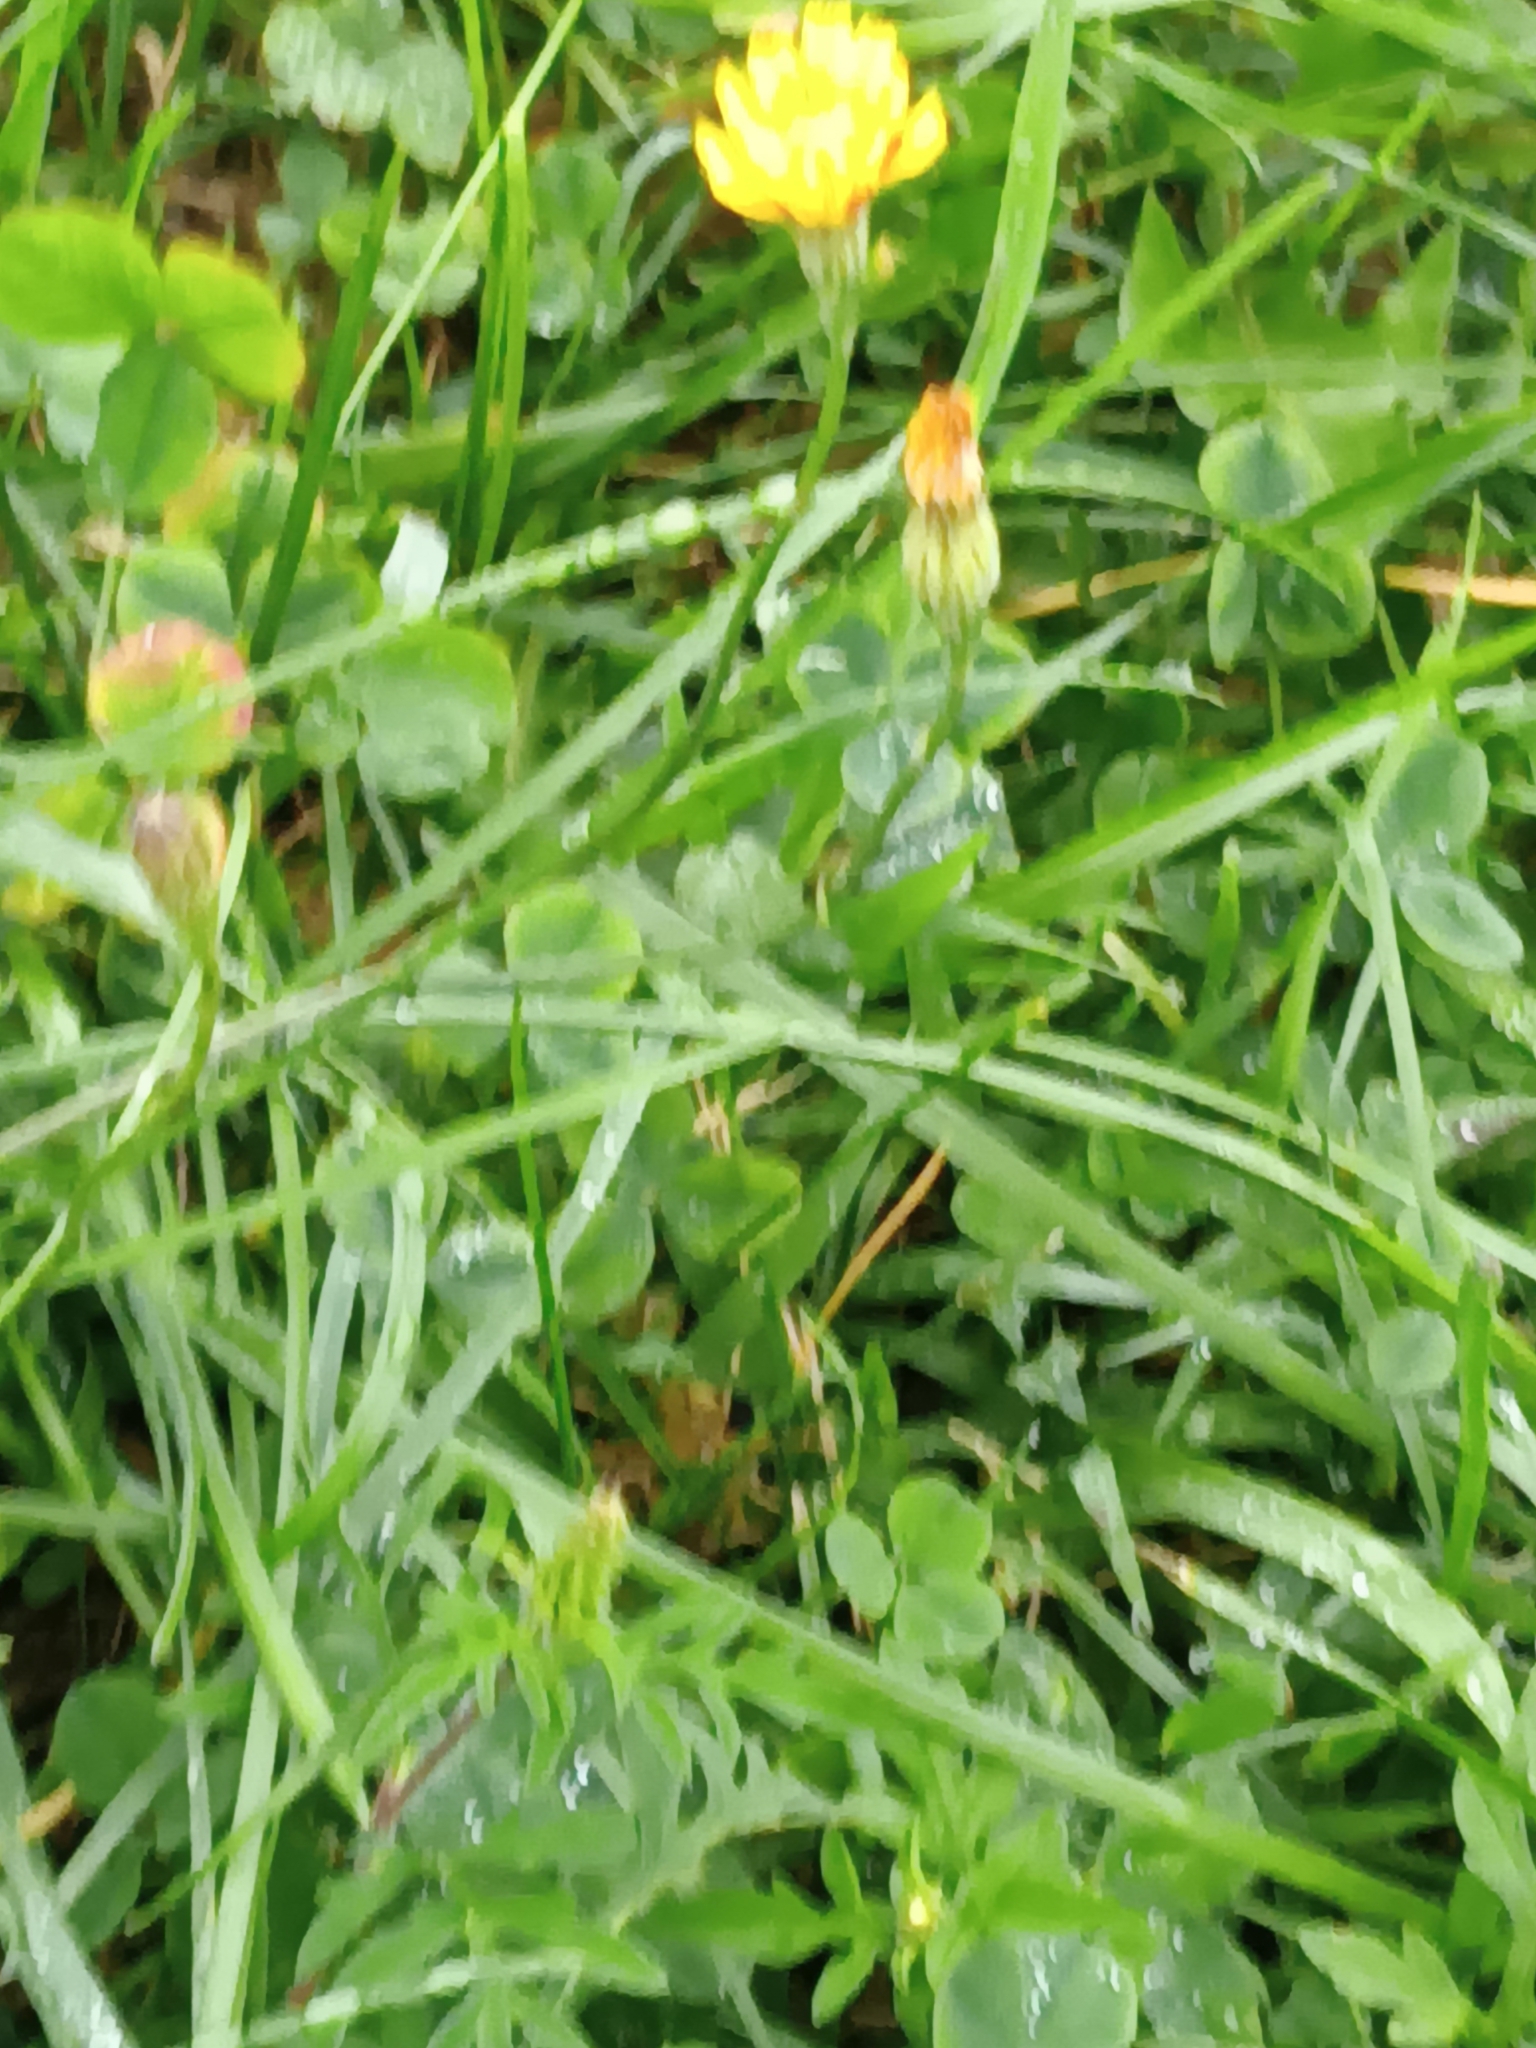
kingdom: Plantae
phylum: Tracheophyta
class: Magnoliopsida
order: Asterales
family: Asteraceae
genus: Scorzoneroides
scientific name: Scorzoneroides autumnalis
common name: Autumn hawkbit
